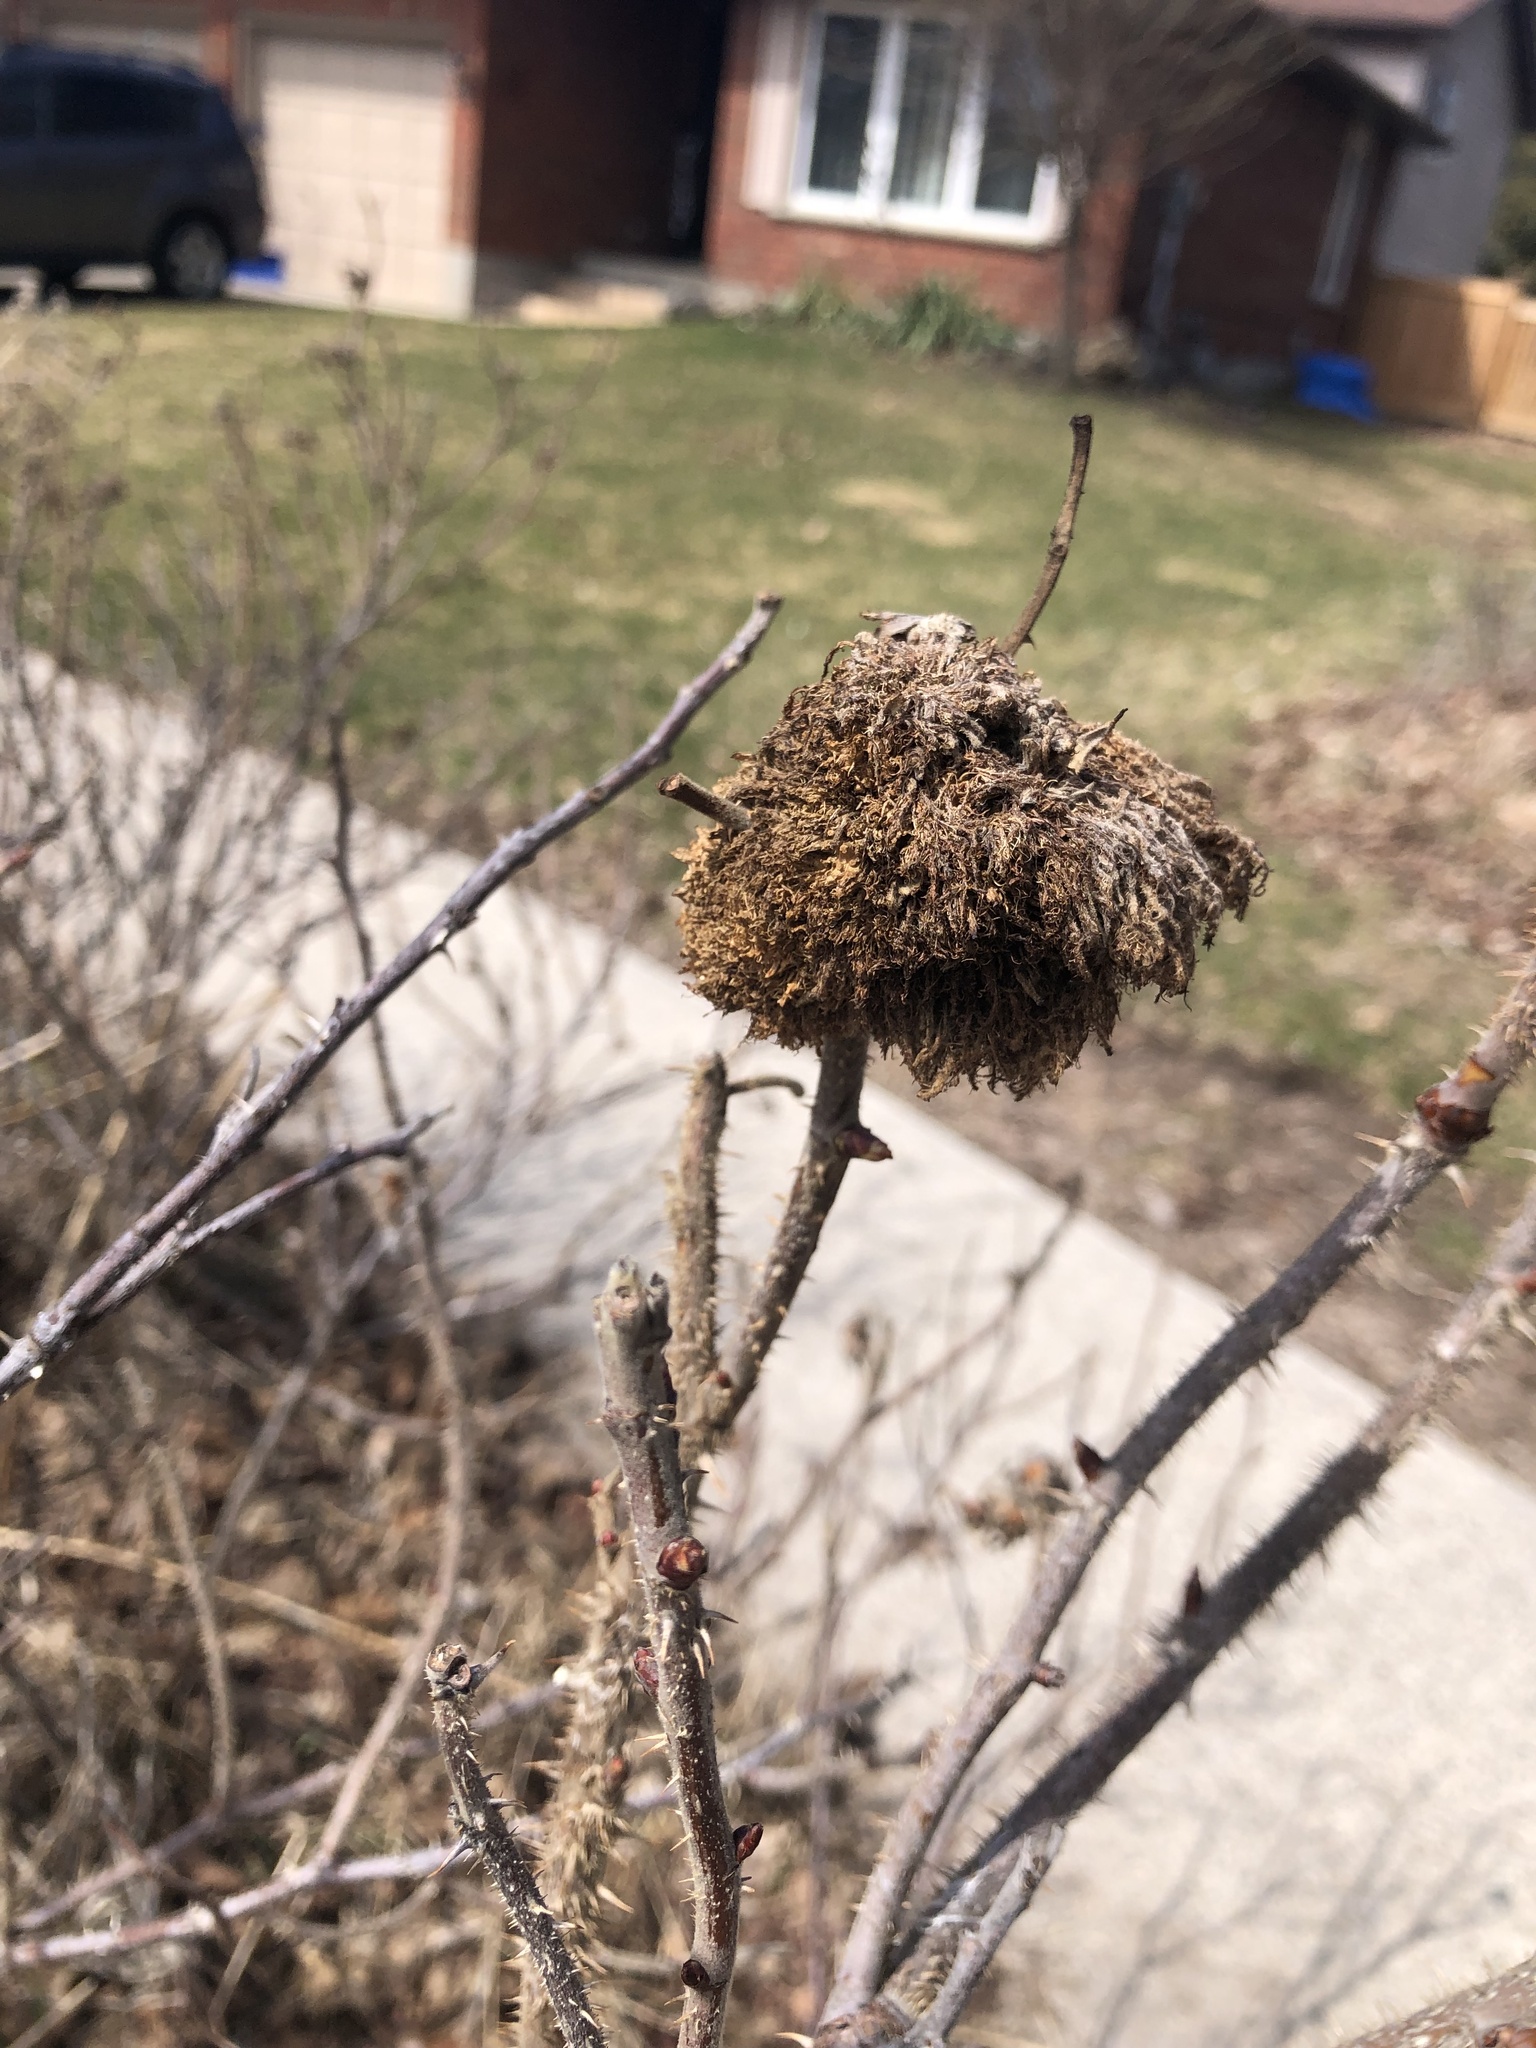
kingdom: Animalia
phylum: Arthropoda
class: Insecta
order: Hymenoptera
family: Cynipidae
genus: Diplolepis
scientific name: Diplolepis rosae
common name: Bedeguar gall
